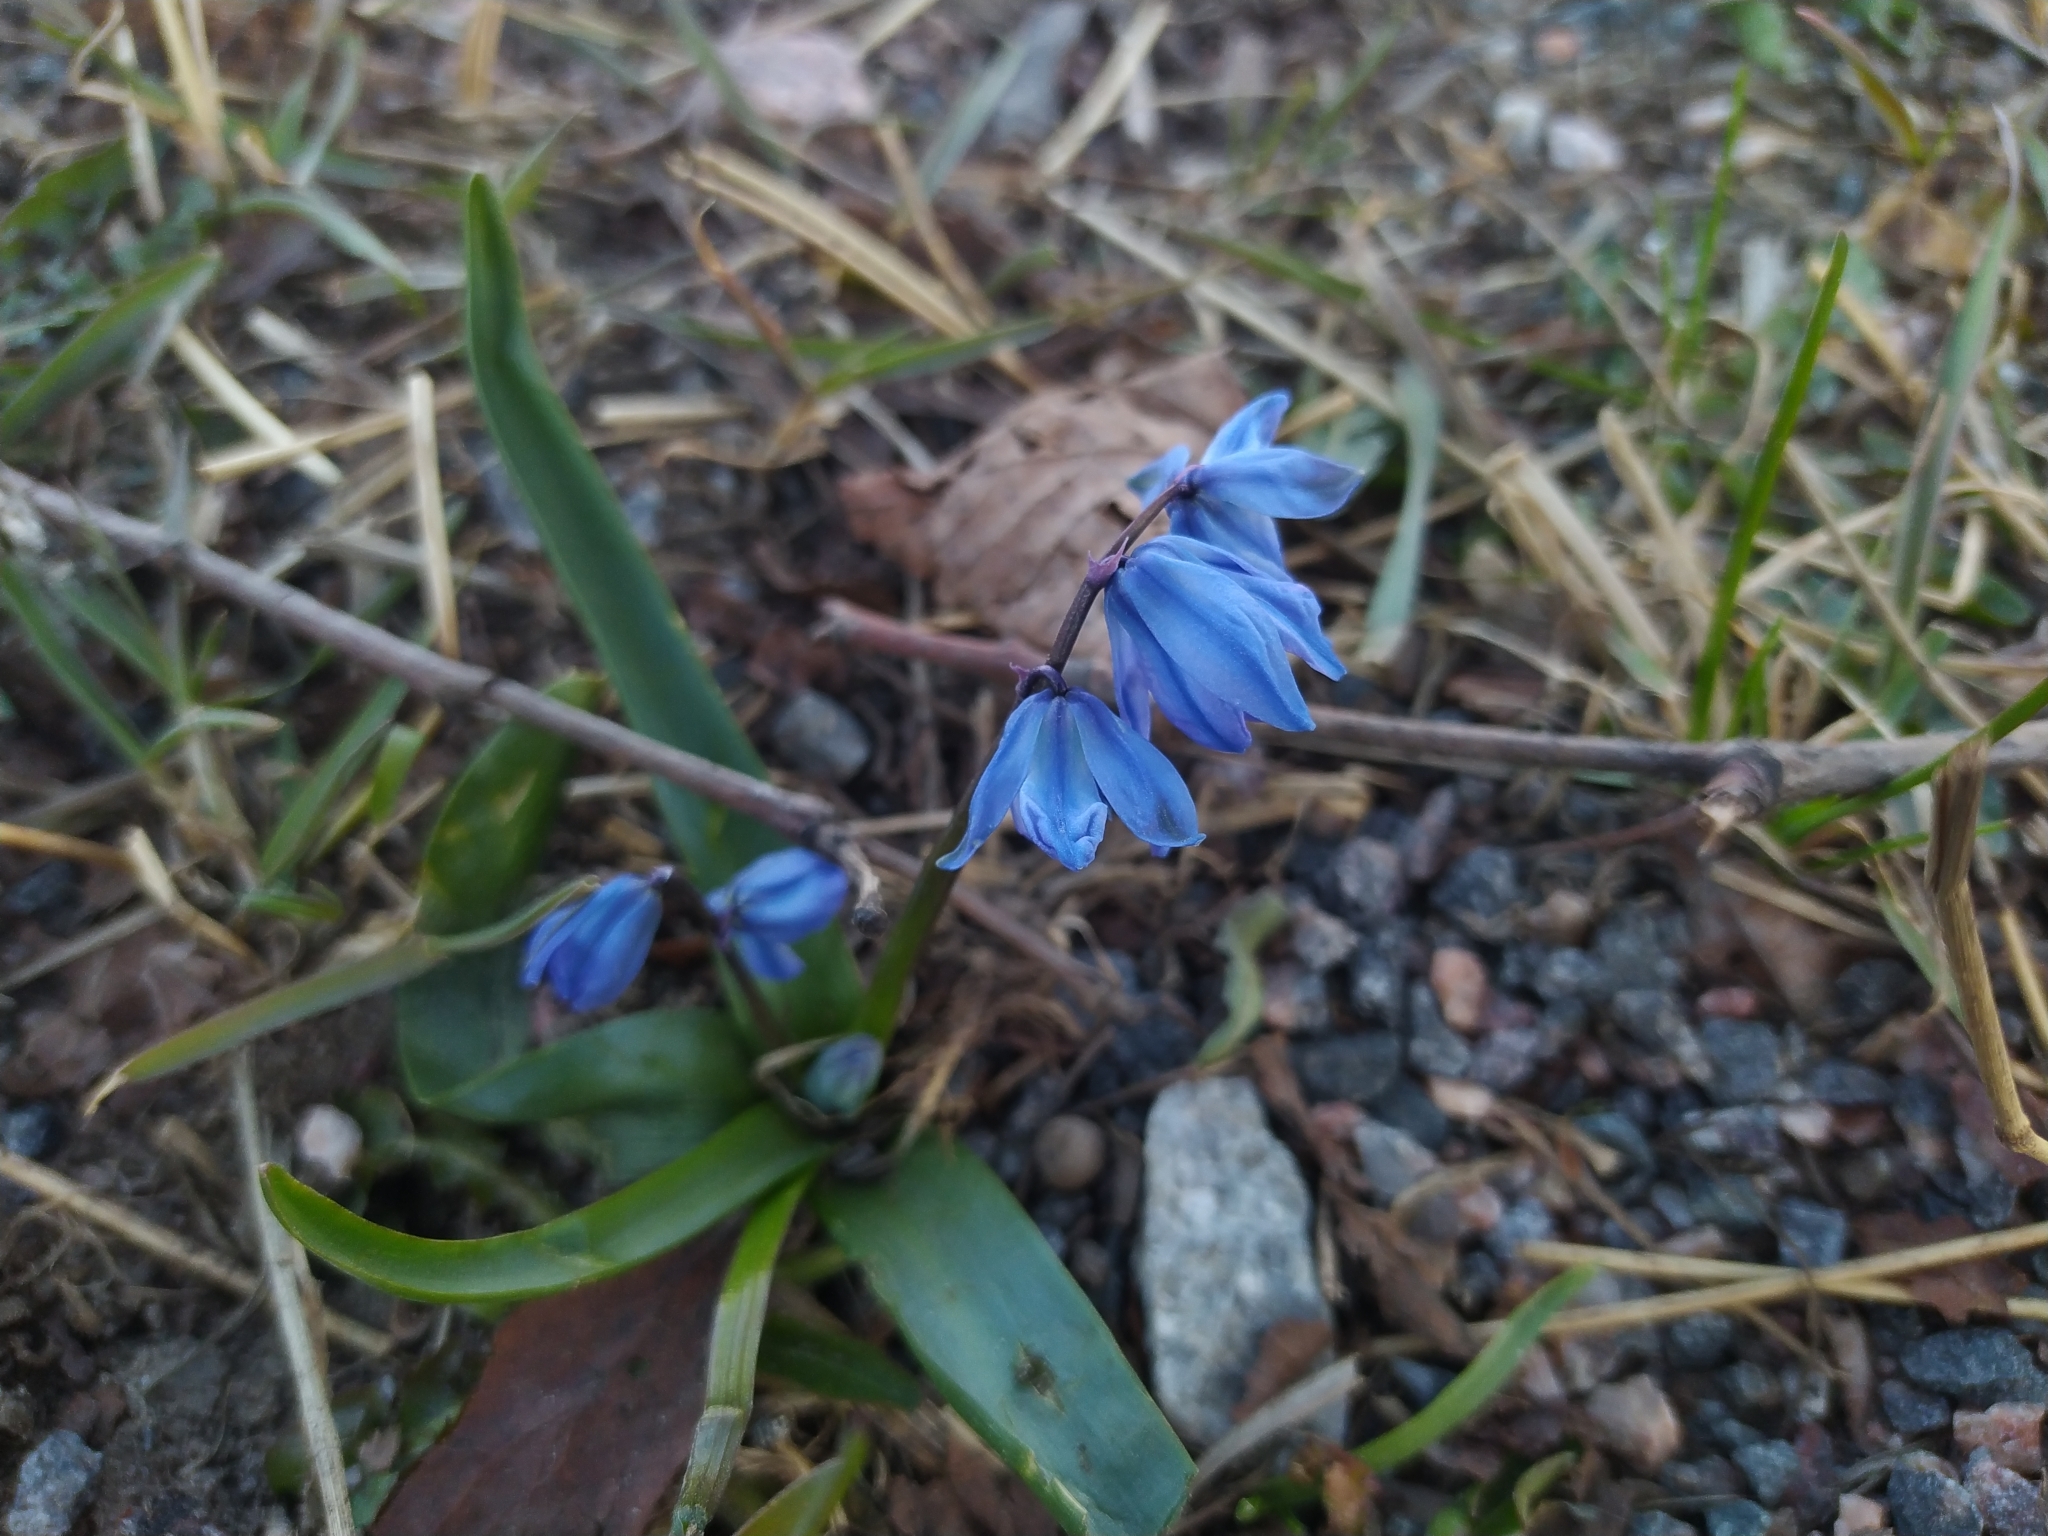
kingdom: Plantae
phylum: Tracheophyta
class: Liliopsida
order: Asparagales
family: Asparagaceae
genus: Scilla
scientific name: Scilla siberica
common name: Siberian squill
